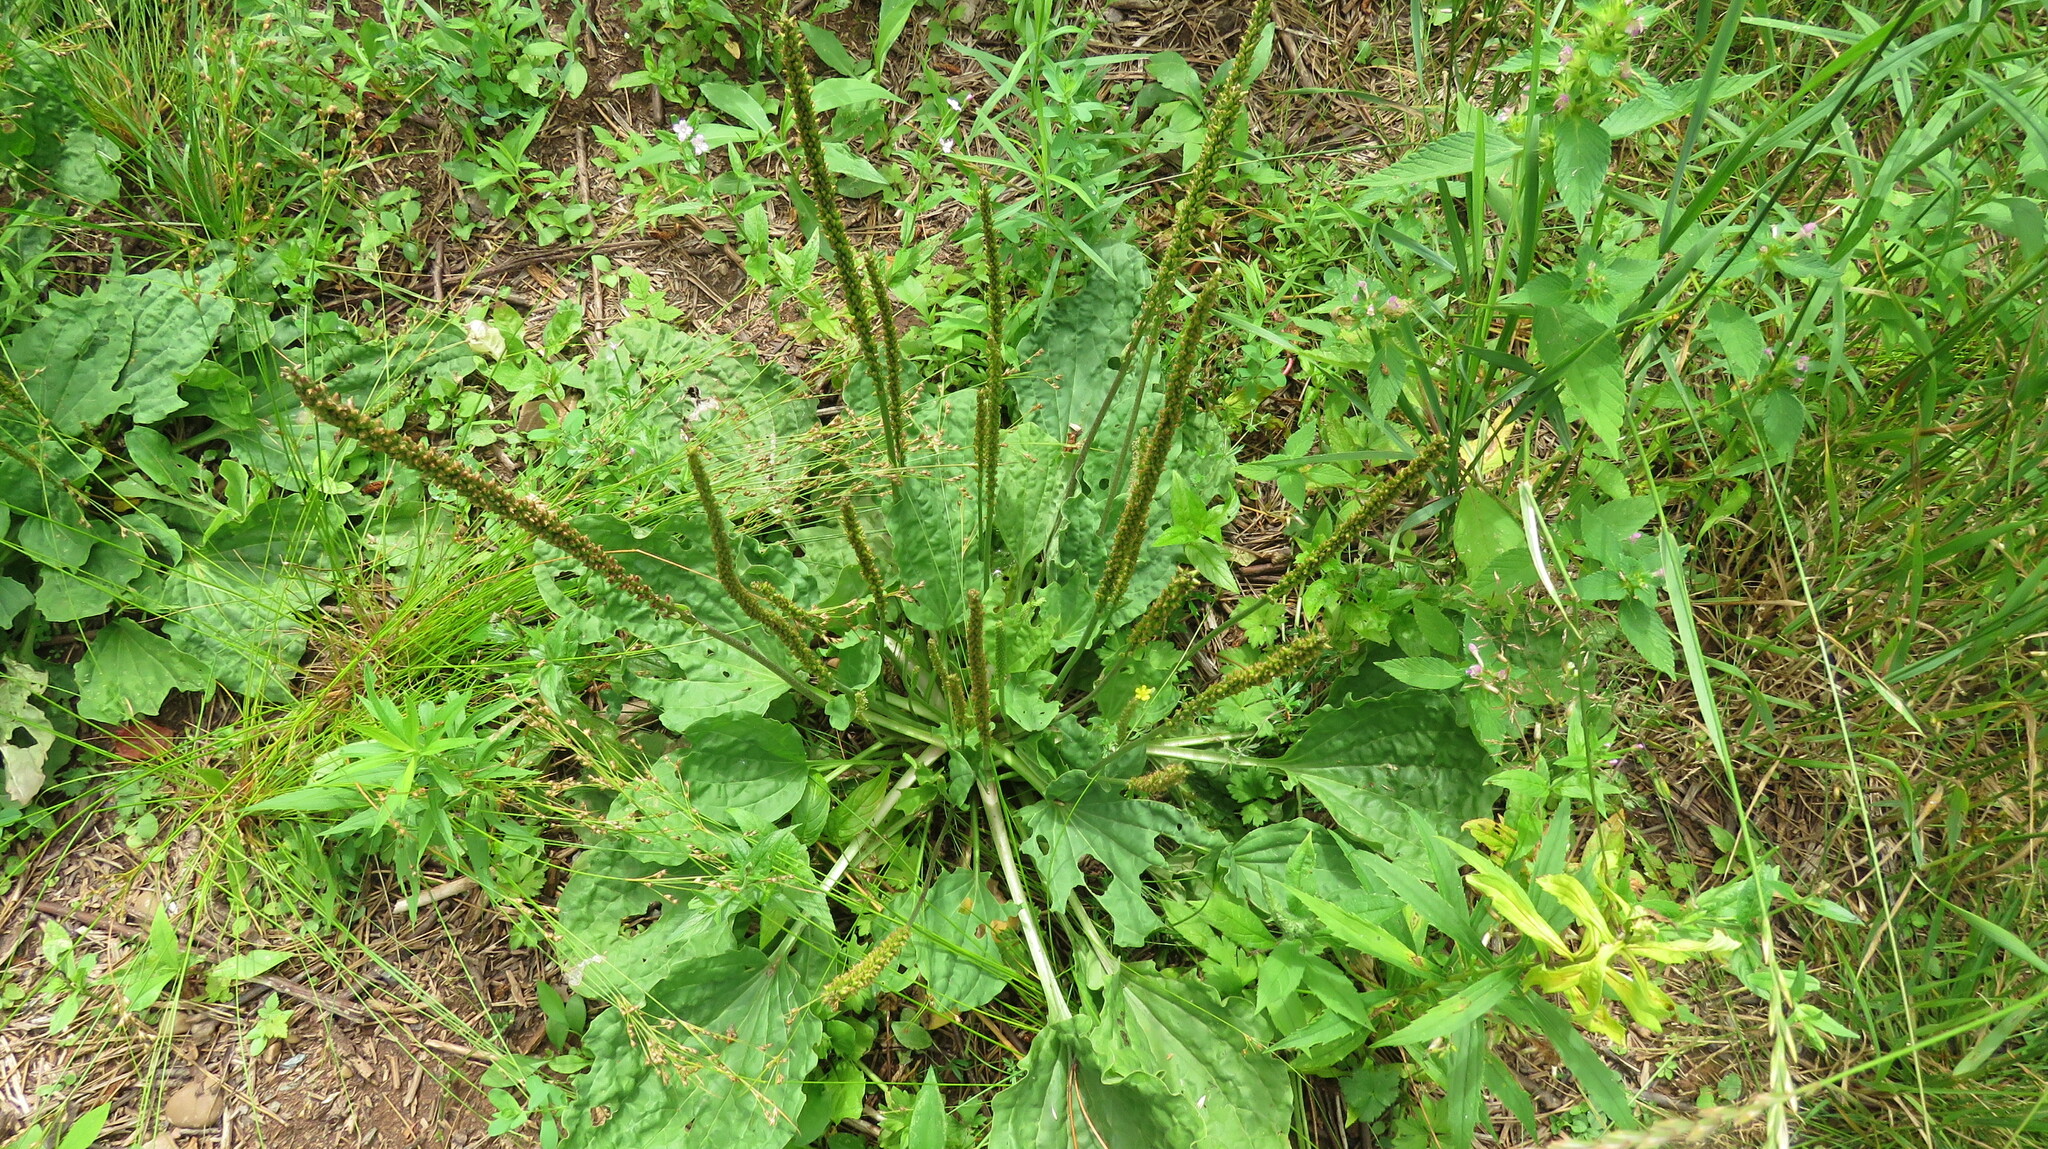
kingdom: Plantae
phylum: Tracheophyta
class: Magnoliopsida
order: Lamiales
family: Plantaginaceae
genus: Plantago
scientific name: Plantago major
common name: Common plantain
